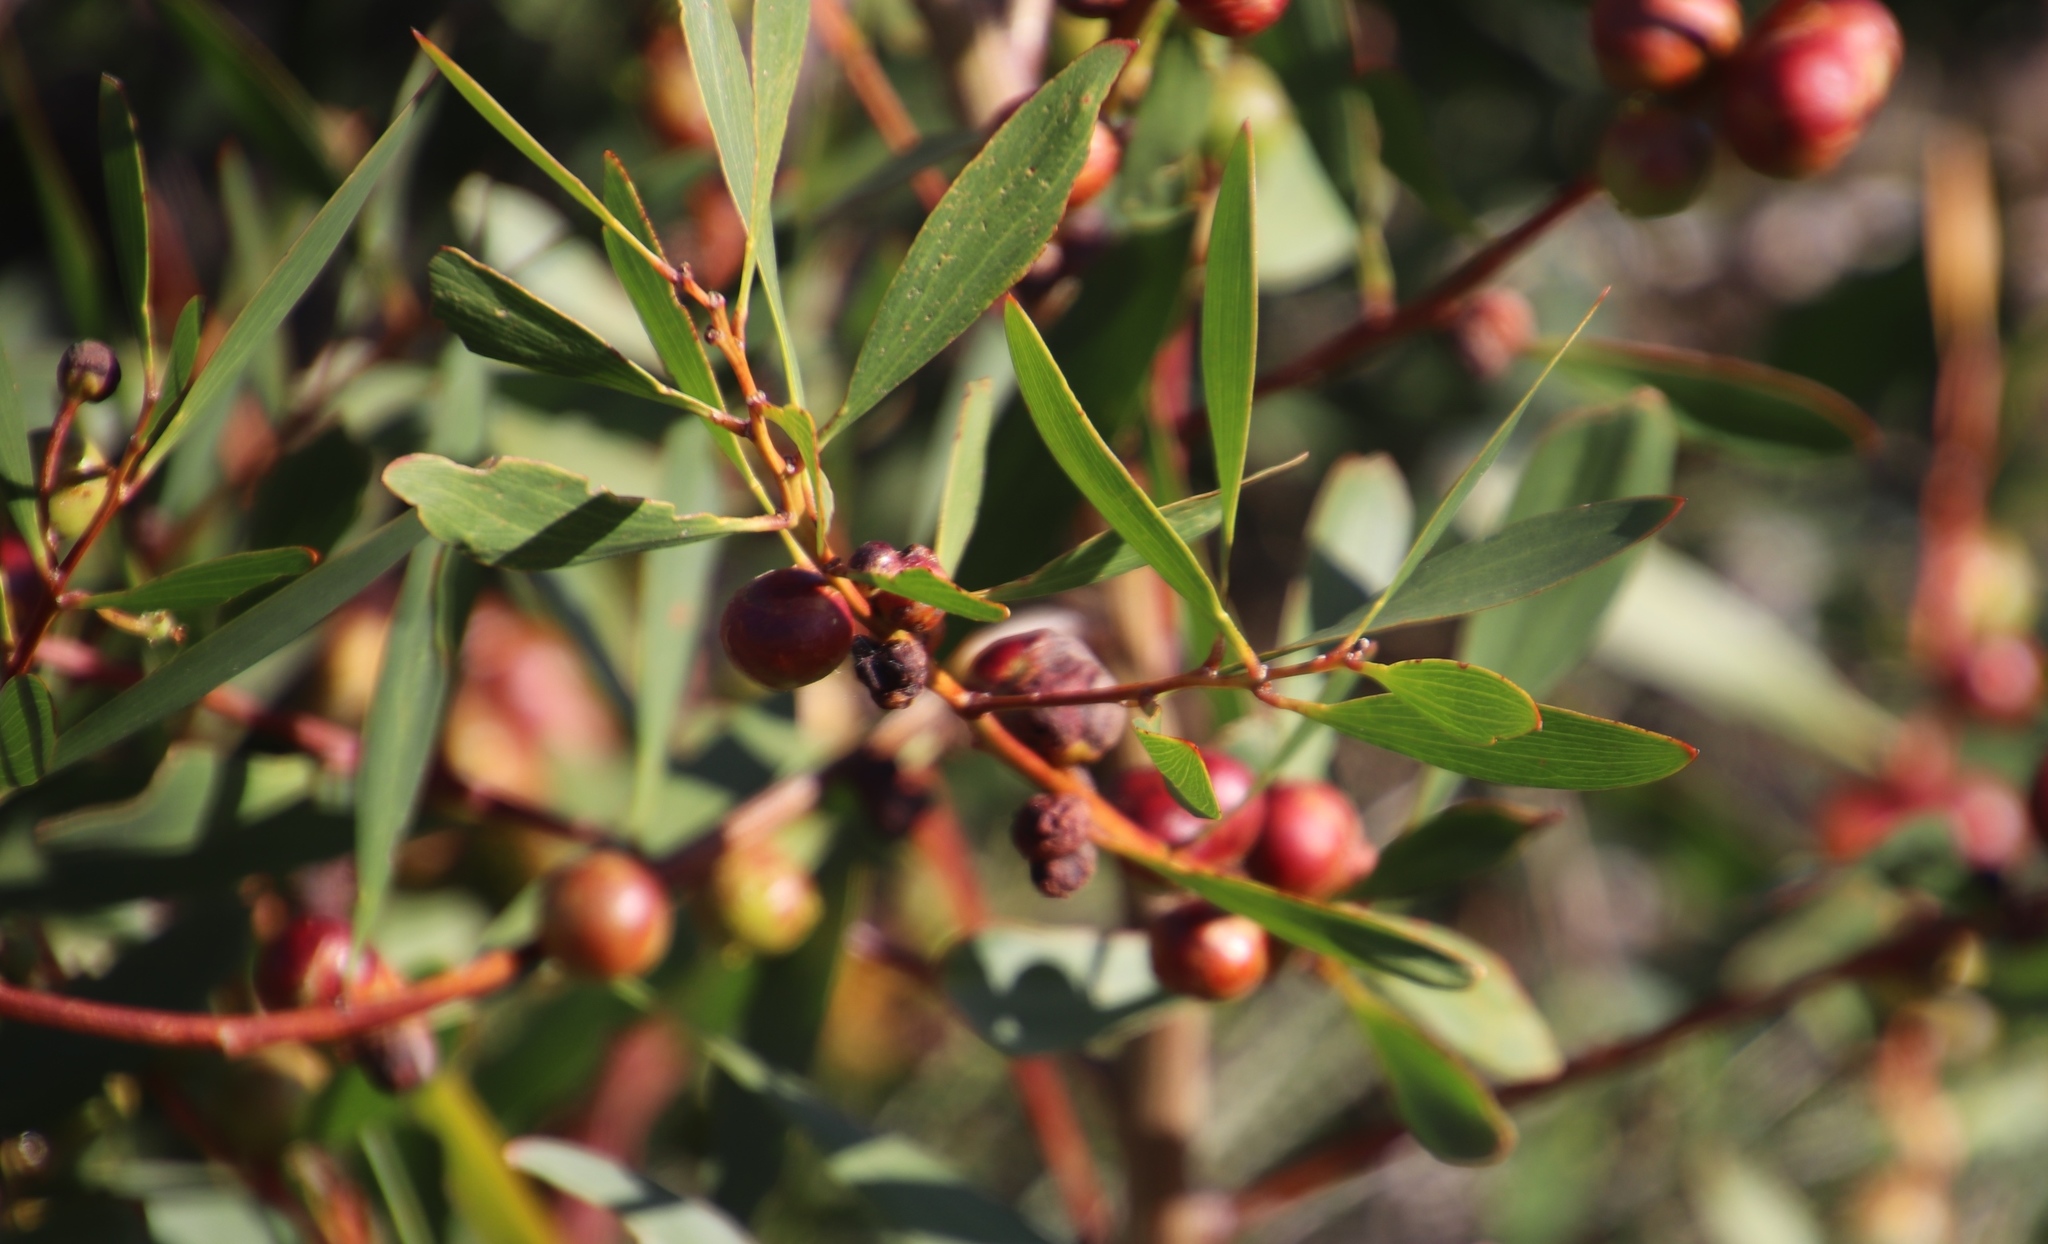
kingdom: Plantae
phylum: Tracheophyta
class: Magnoliopsida
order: Fabales
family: Fabaceae
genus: Acacia
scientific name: Acacia longifolia
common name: Sydney golden wattle
